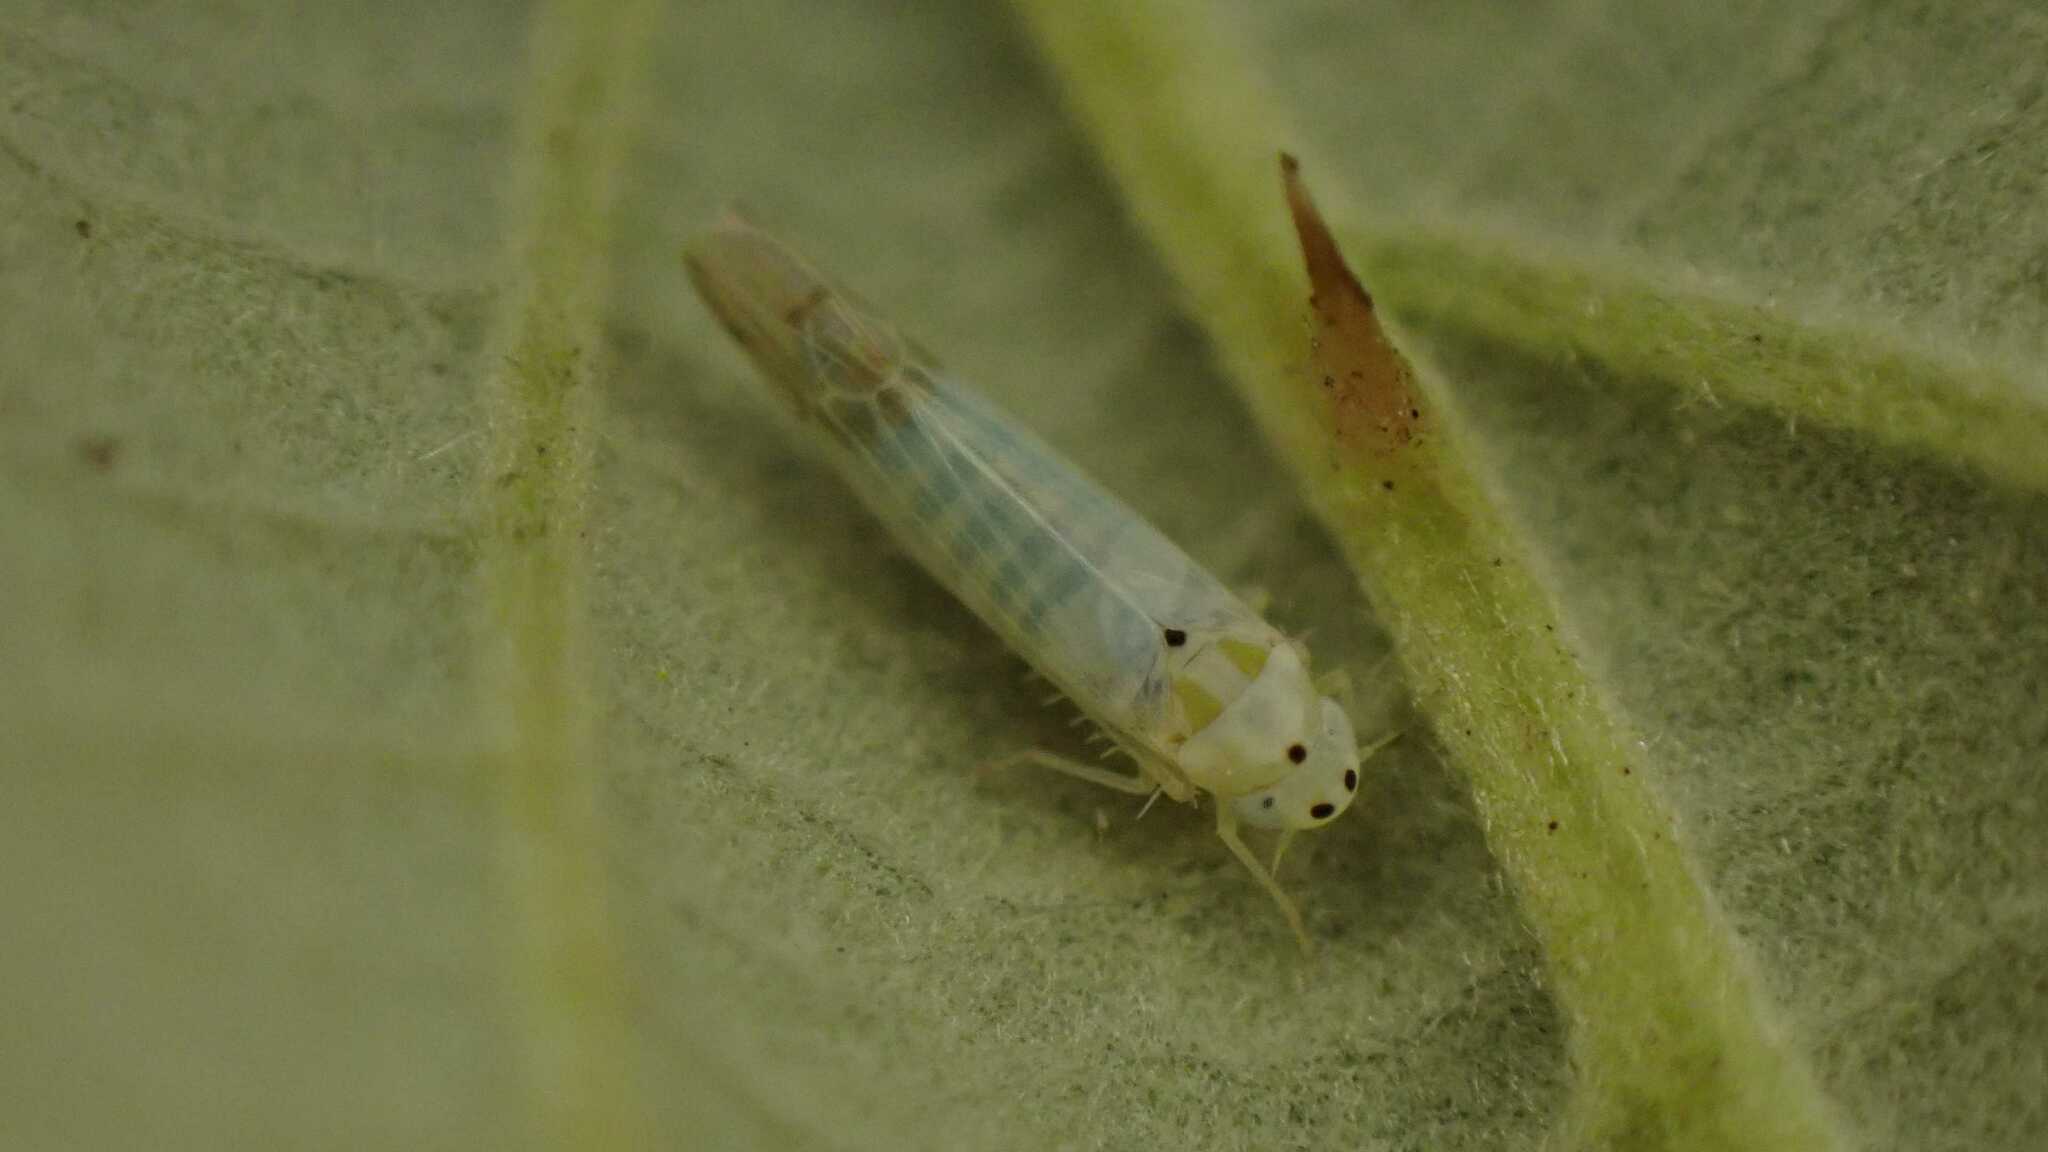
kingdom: Animalia
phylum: Arthropoda
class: Insecta
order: Hemiptera
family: Cicadellidae
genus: Ribautiana
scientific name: Ribautiana debilis
